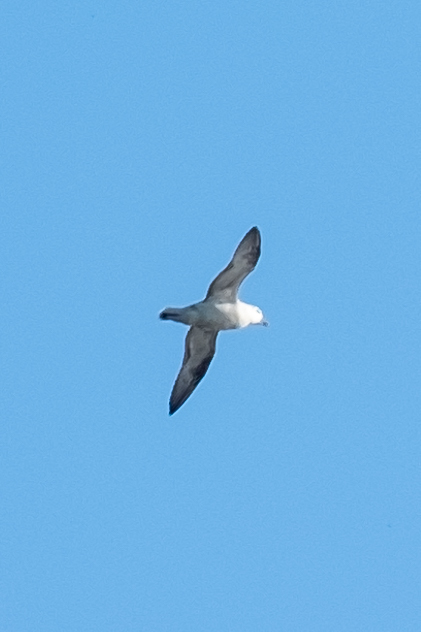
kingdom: Animalia
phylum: Chordata
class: Aves
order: Procellariiformes
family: Procellariidae
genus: Fulmarus
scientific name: Fulmarus glacialis
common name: Northern fulmar
